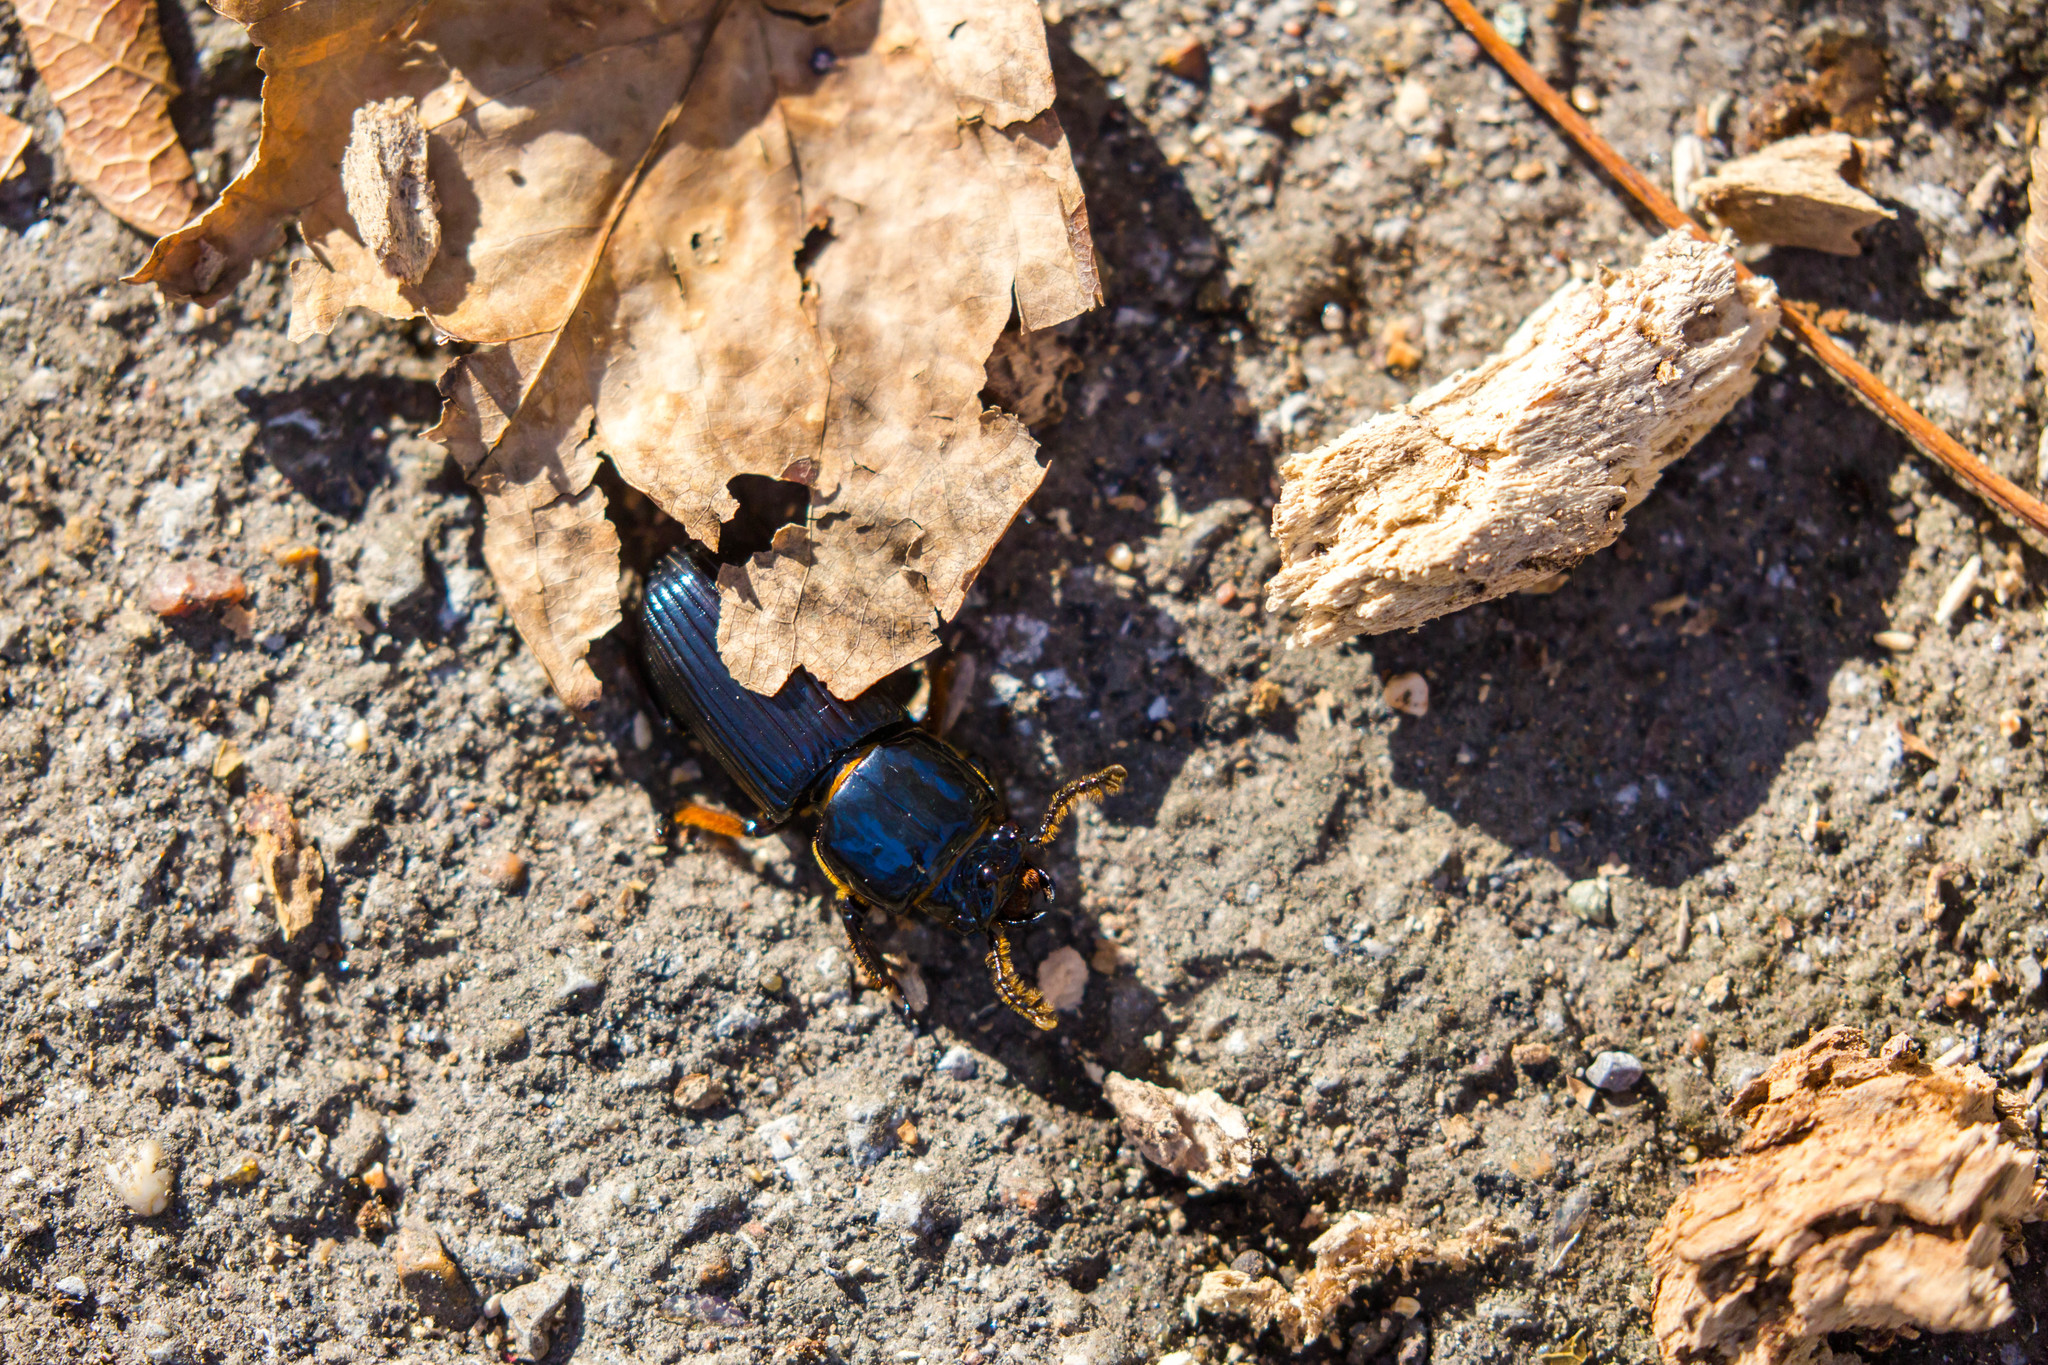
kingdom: Animalia
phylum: Arthropoda
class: Insecta
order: Coleoptera
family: Passalidae
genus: Odontotaenius
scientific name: Odontotaenius disjunctus
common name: Patent leather beetle
